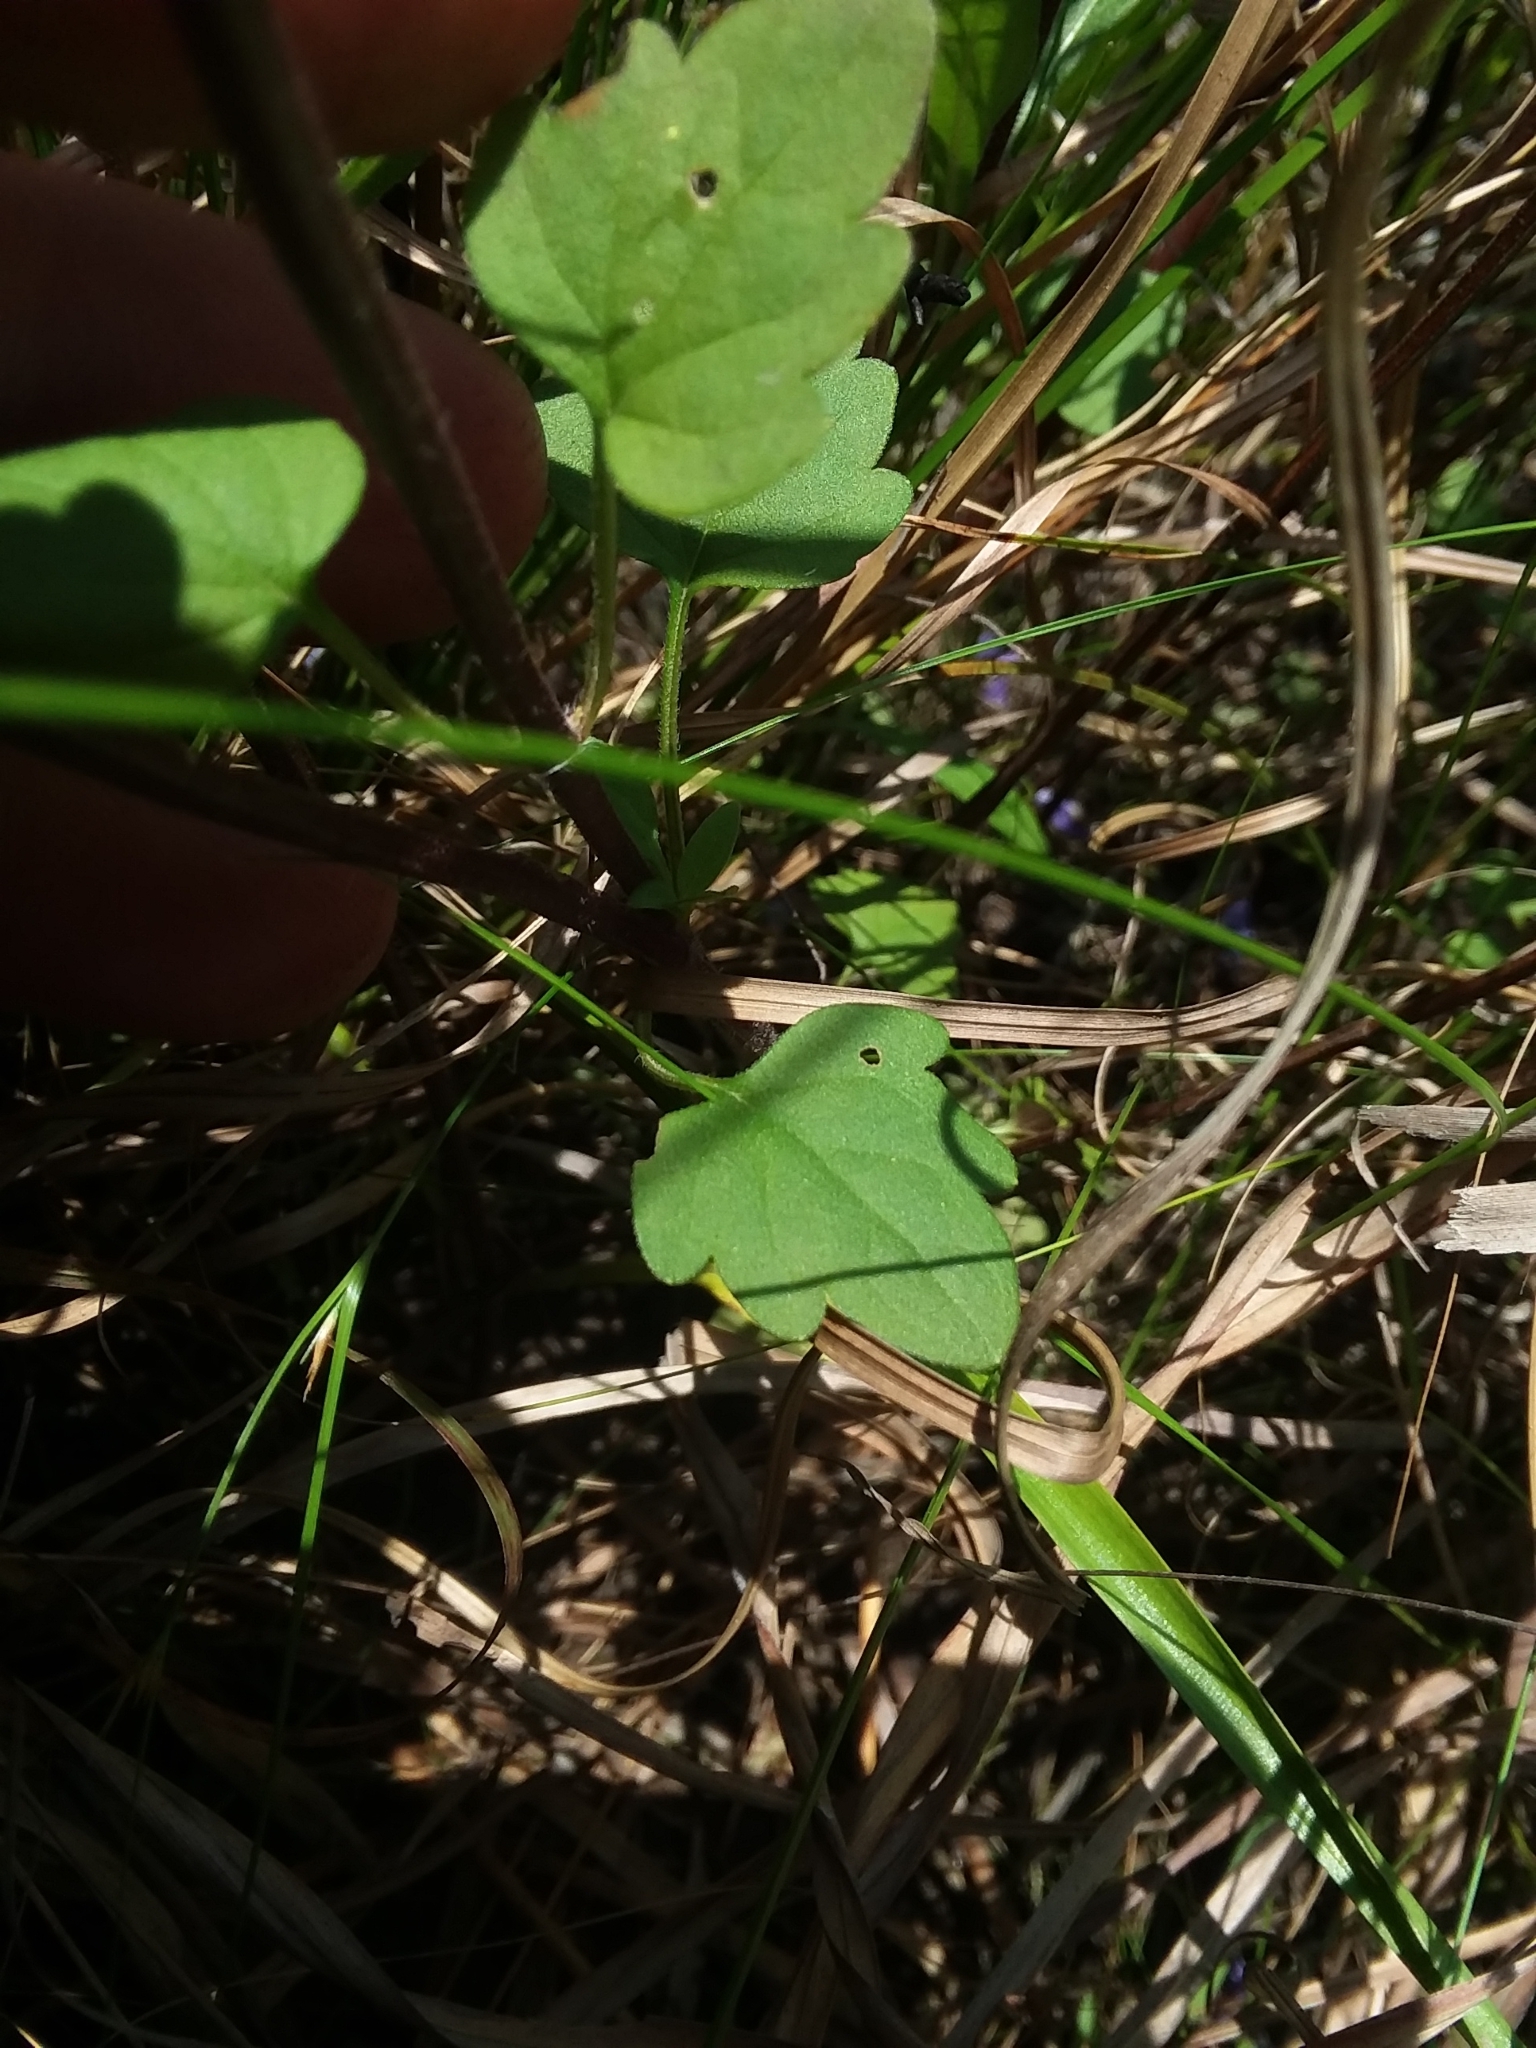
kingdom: Plantae
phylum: Tracheophyta
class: Magnoliopsida
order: Lamiales
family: Lamiaceae
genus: Scutellaria
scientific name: Scutellaria integrifolia
